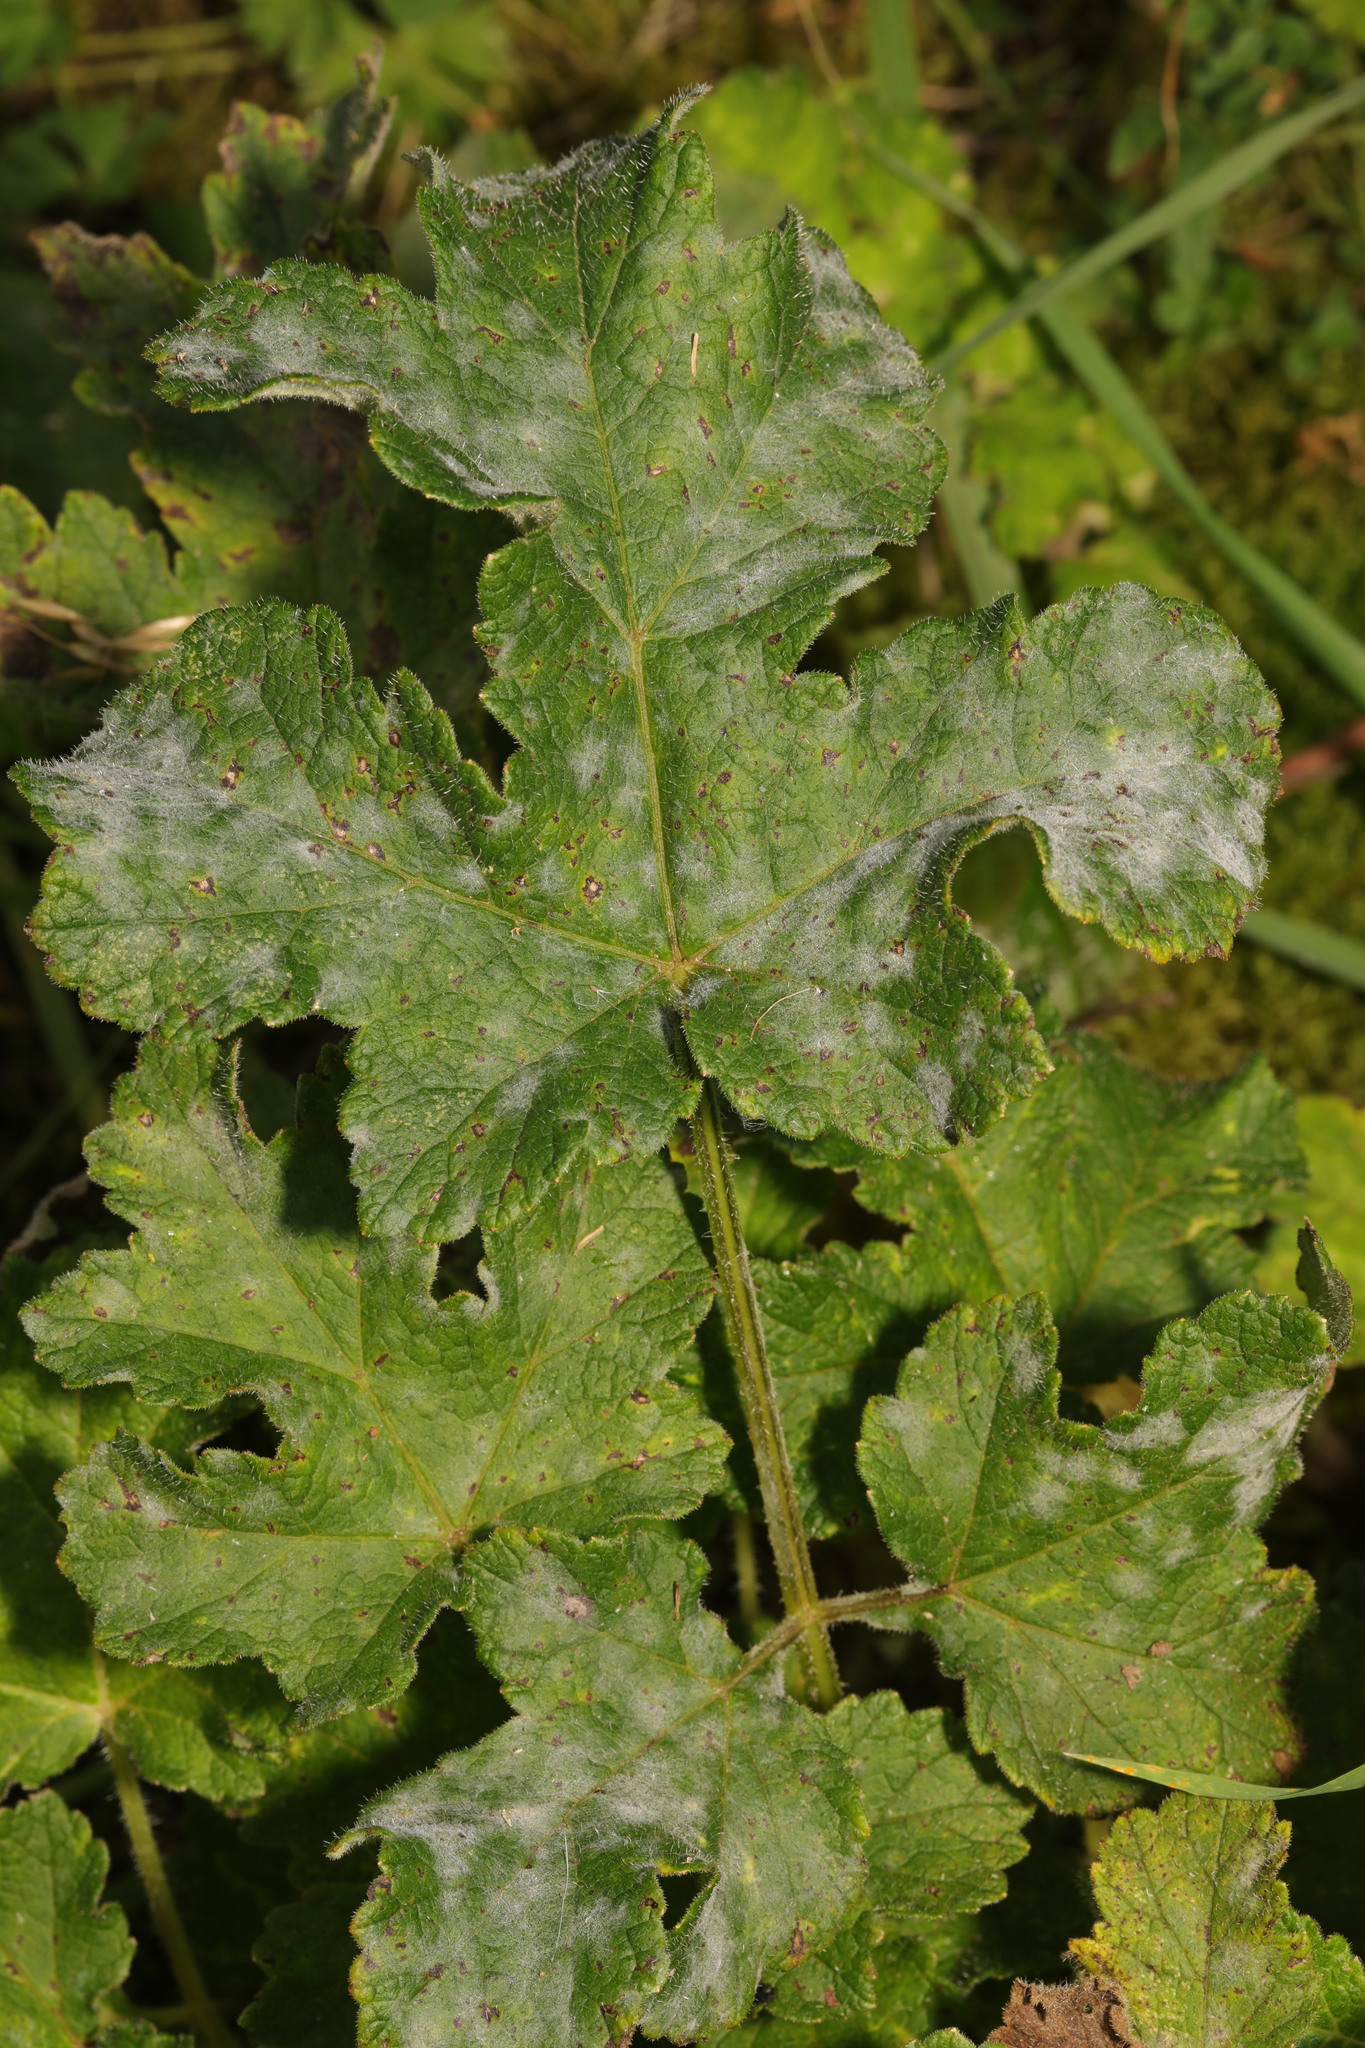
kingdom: Plantae
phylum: Tracheophyta
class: Magnoliopsida
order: Apiales
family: Apiaceae
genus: Heracleum
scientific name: Heracleum sphondylium
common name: Hogweed
